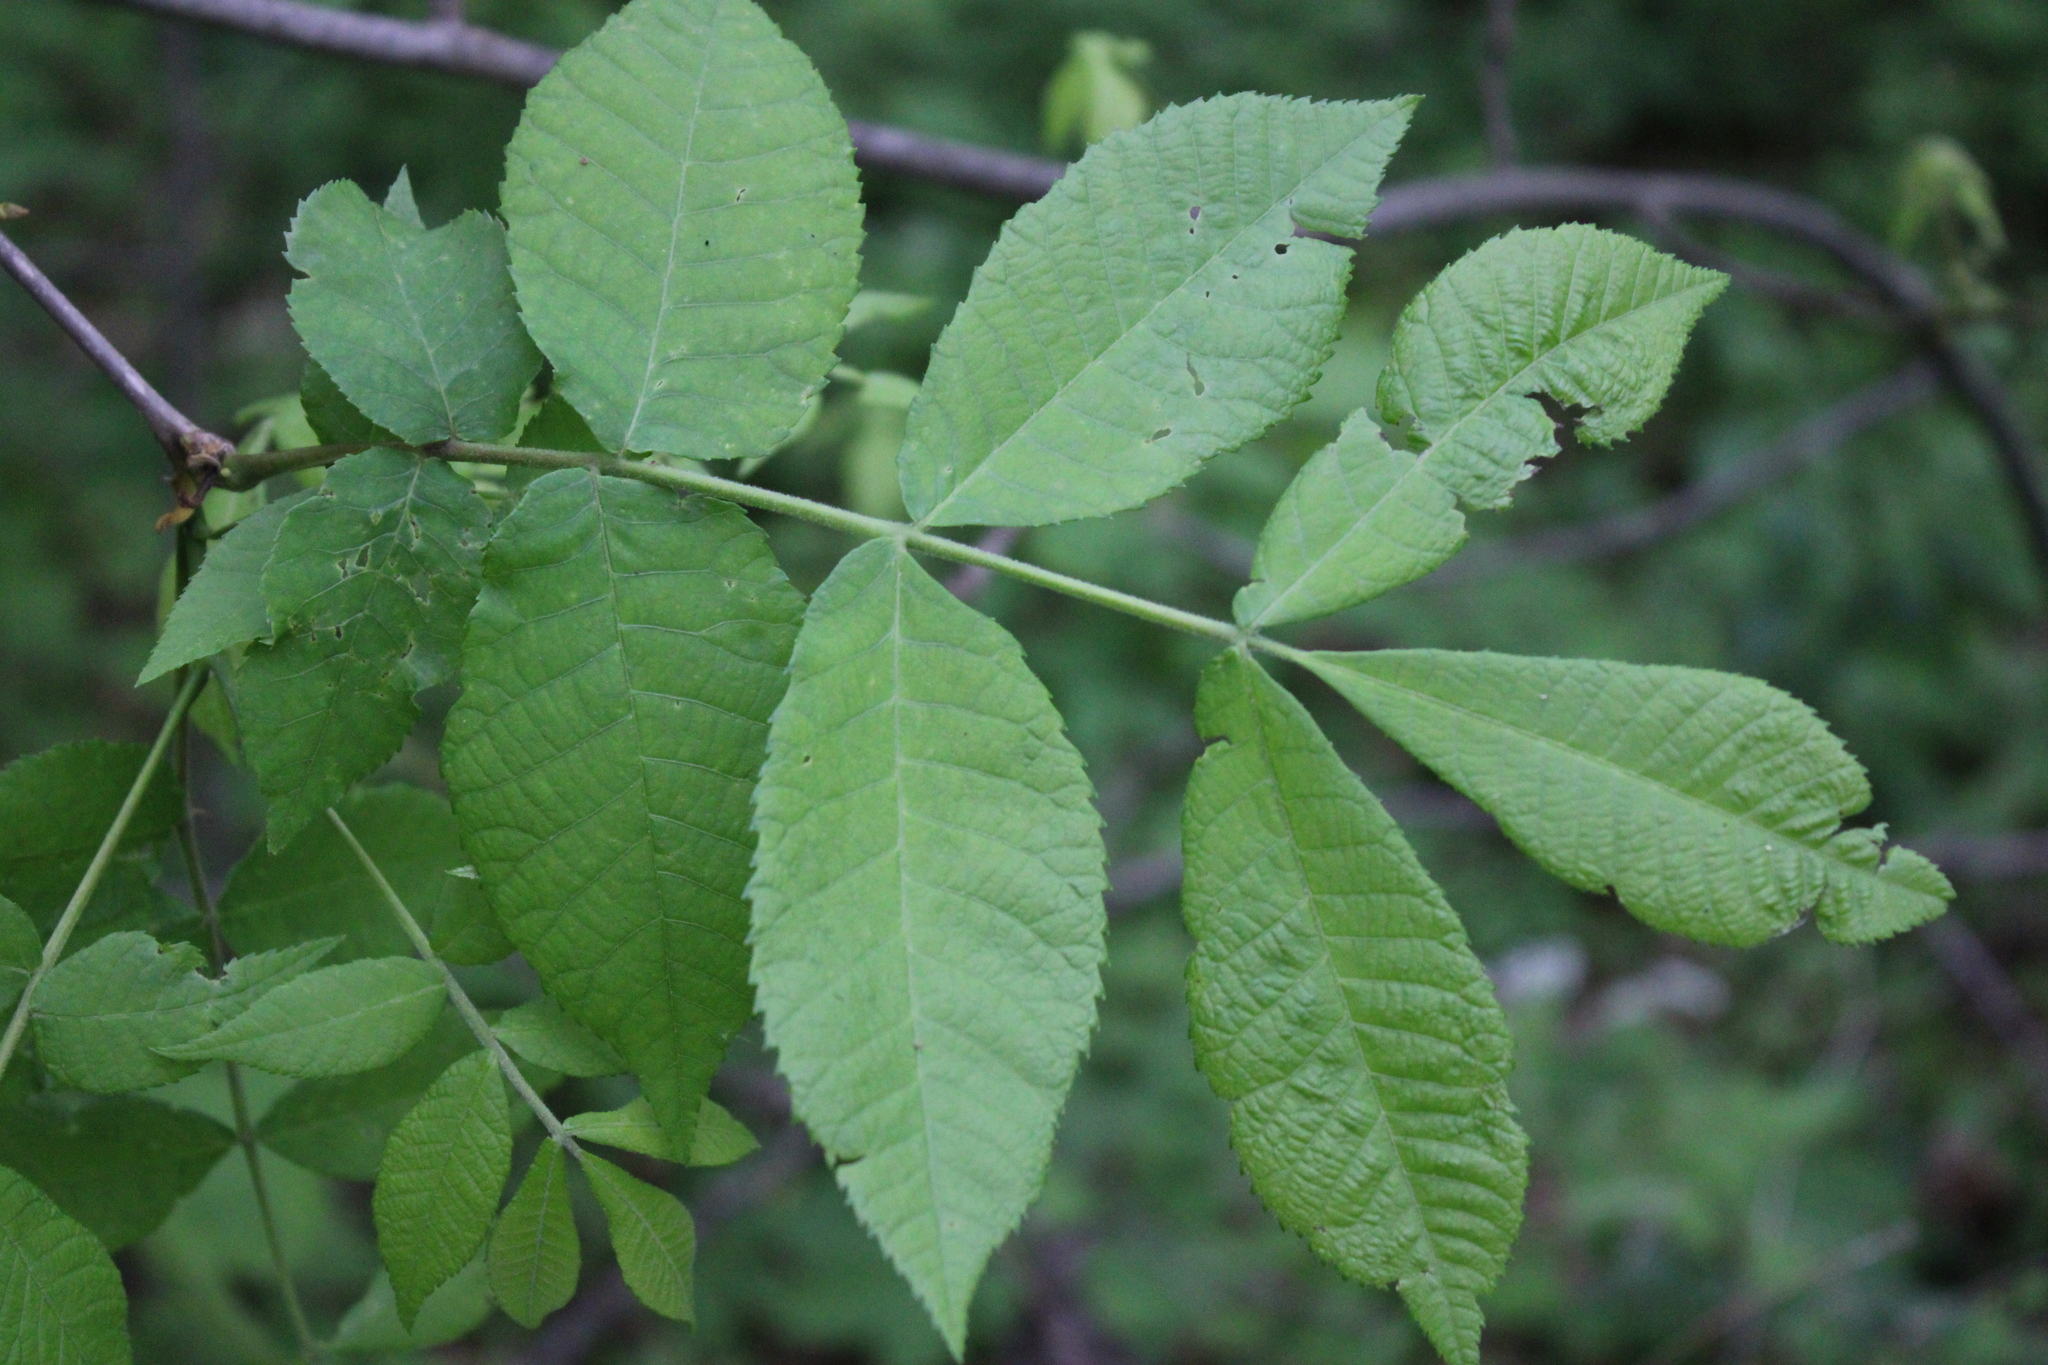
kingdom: Plantae
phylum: Tracheophyta
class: Magnoliopsida
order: Fagales
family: Juglandaceae
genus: Carya
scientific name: Carya cordiformis
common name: Bitternut hickory
